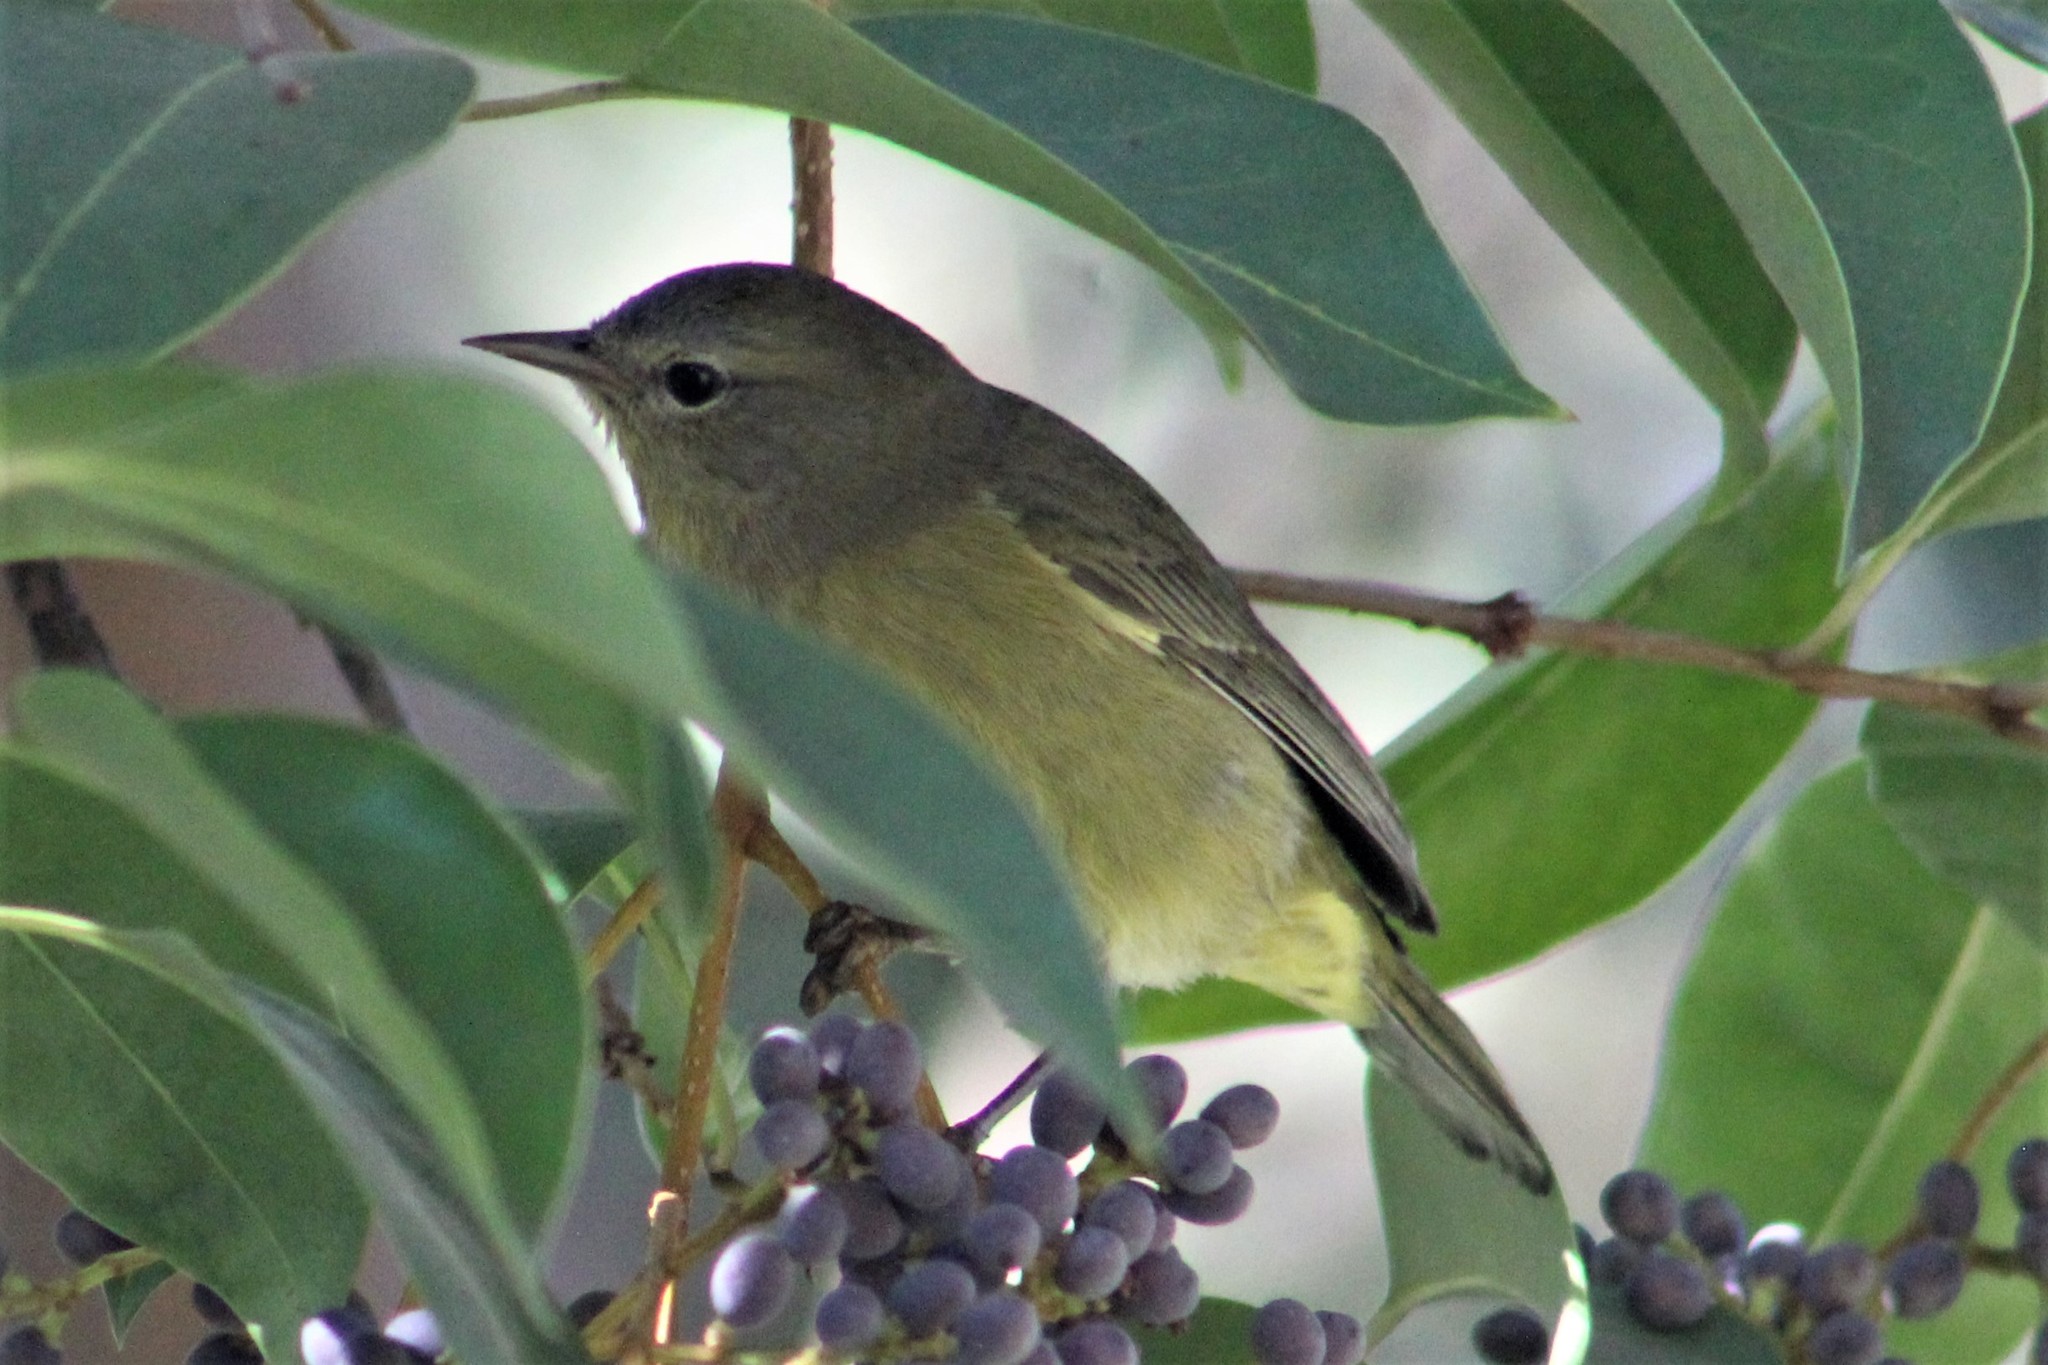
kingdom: Animalia
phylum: Chordata
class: Aves
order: Passeriformes
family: Parulidae
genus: Leiothlypis
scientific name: Leiothlypis celata
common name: Orange-crowned warbler
